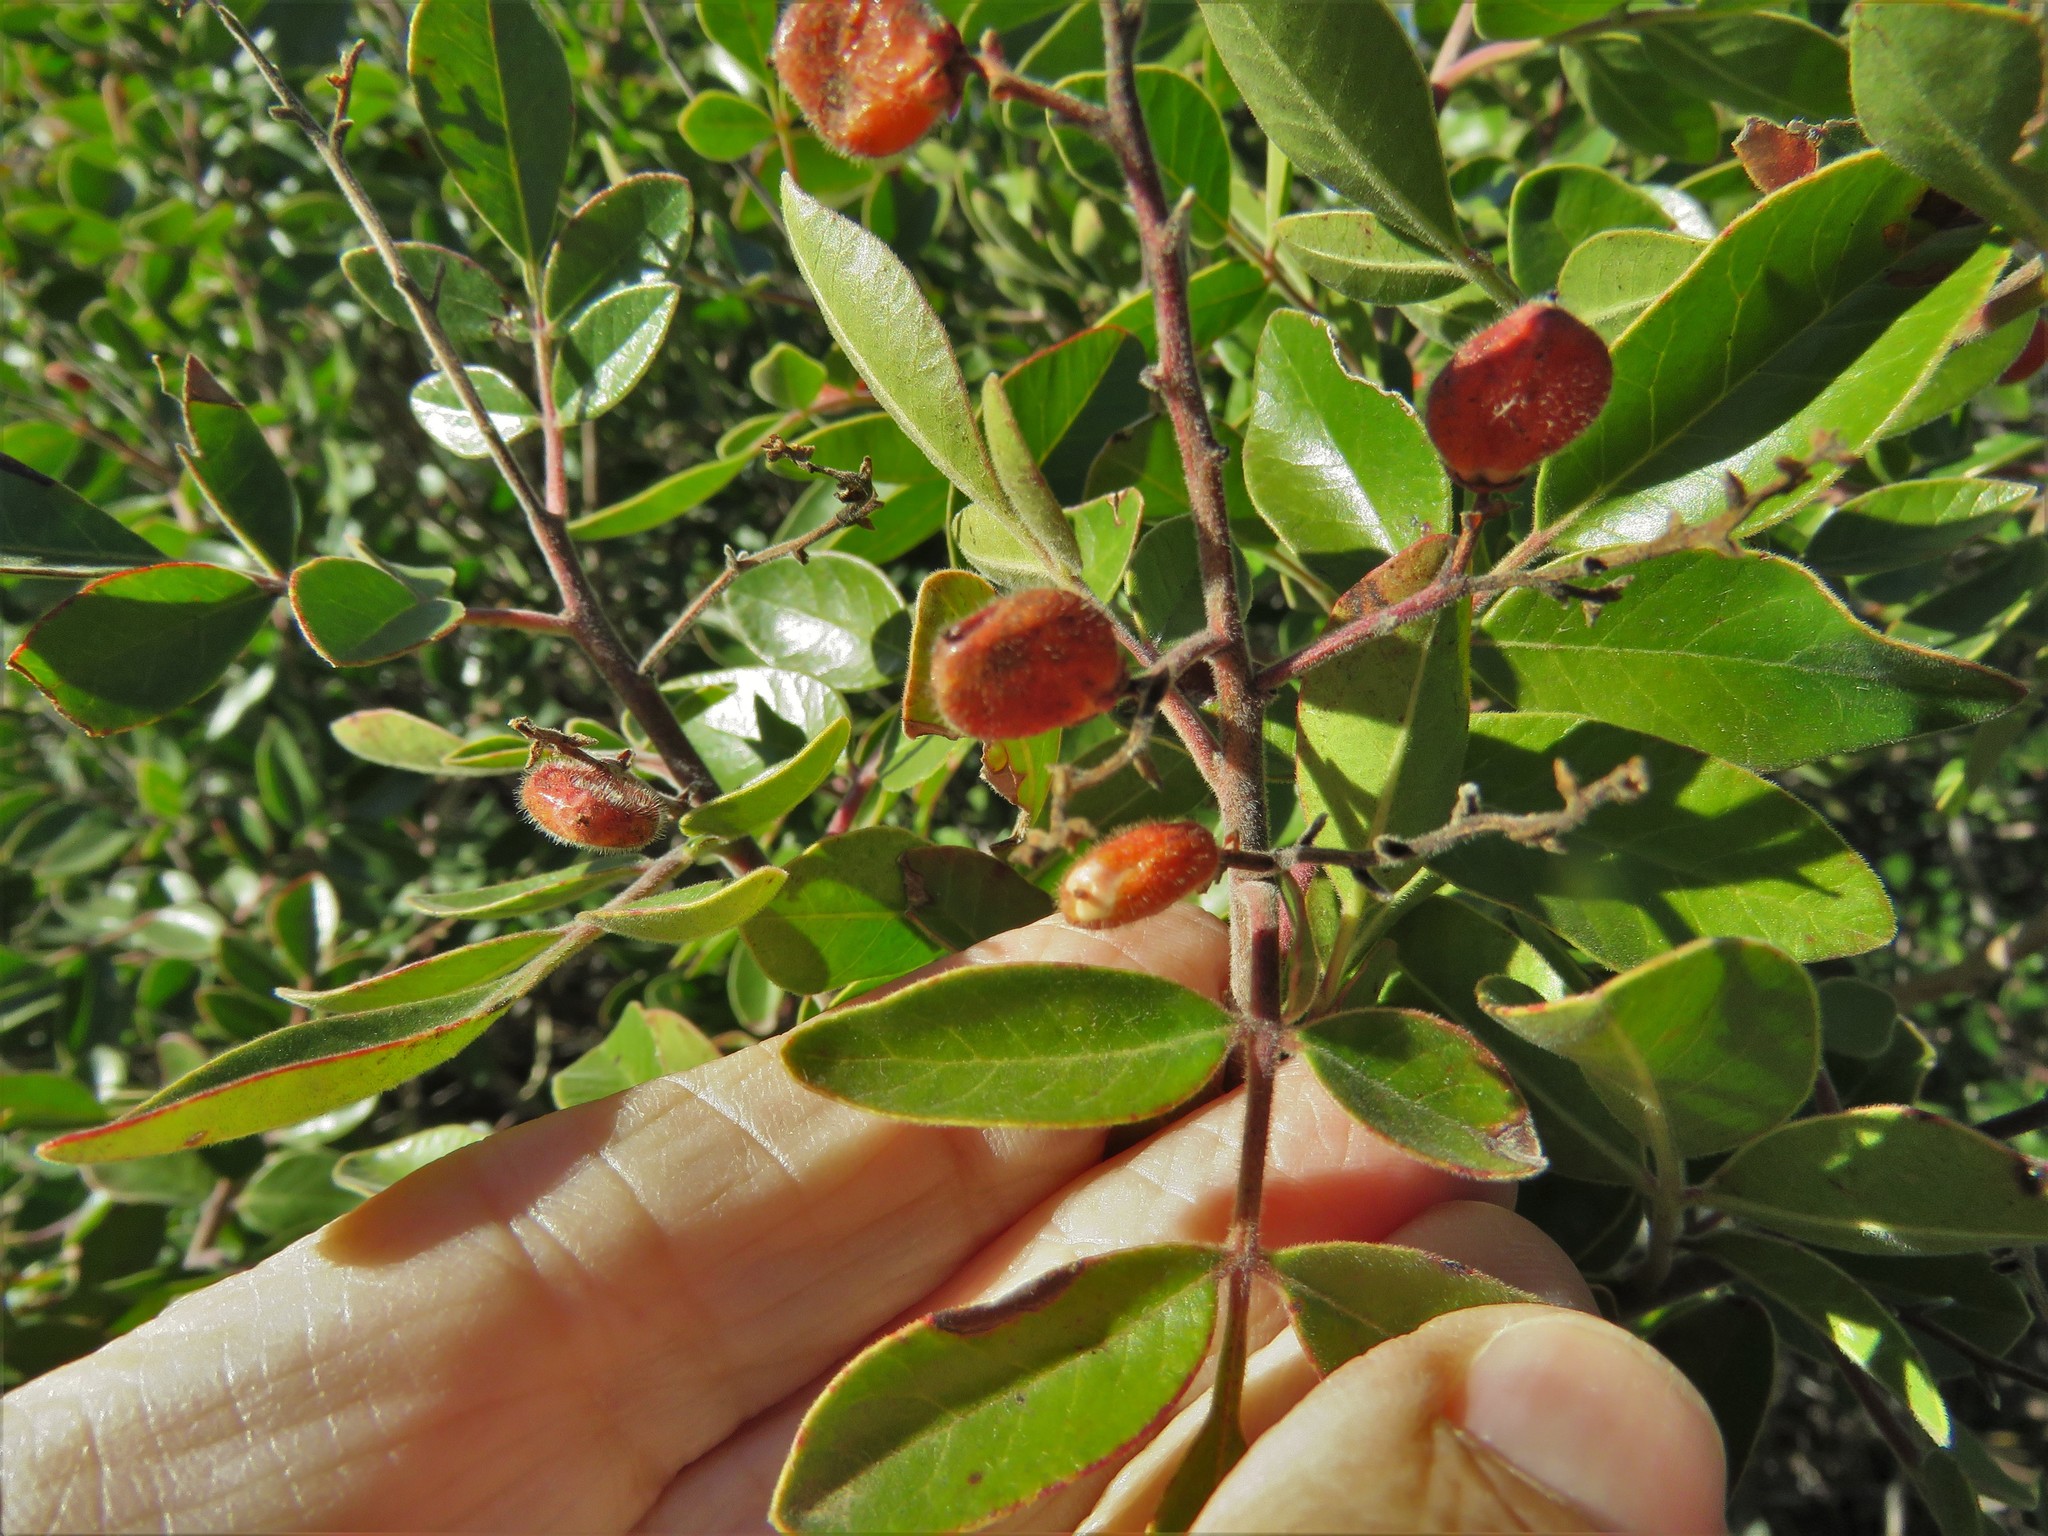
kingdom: Plantae
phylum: Tracheophyta
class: Magnoliopsida
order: Sapindales
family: Anacardiaceae
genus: Rhus
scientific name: Rhus virens
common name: Evergreen sumac
